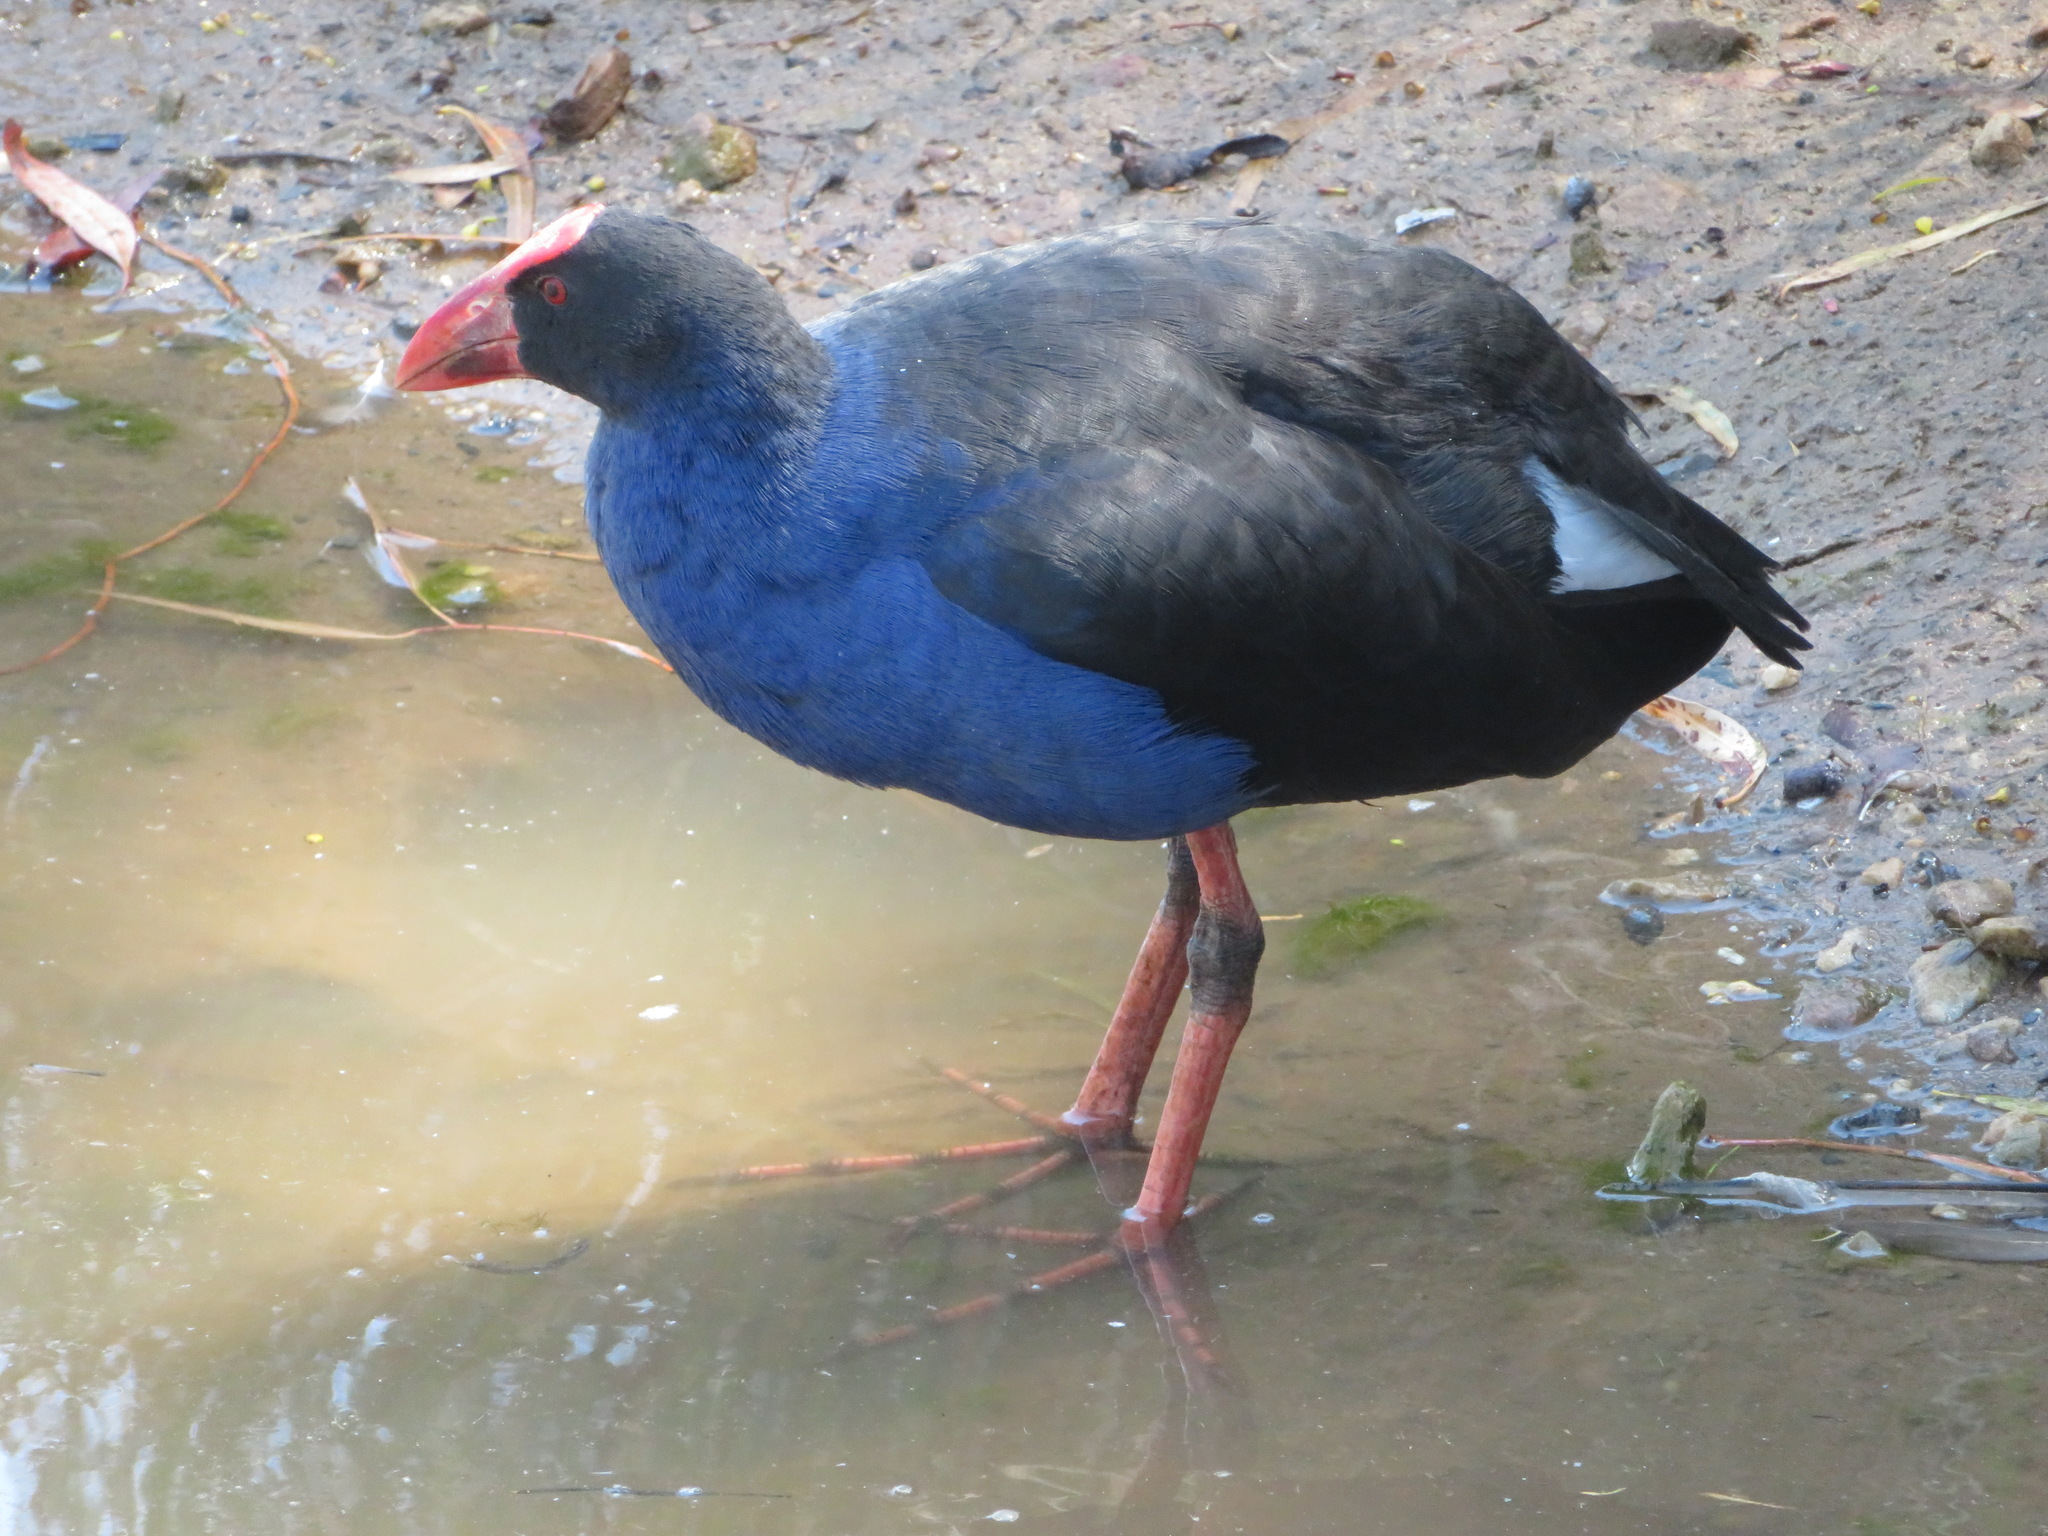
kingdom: Animalia
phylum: Chordata
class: Aves
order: Gruiformes
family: Rallidae
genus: Porphyrio
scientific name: Porphyrio melanotus
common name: Australasian swamphen
